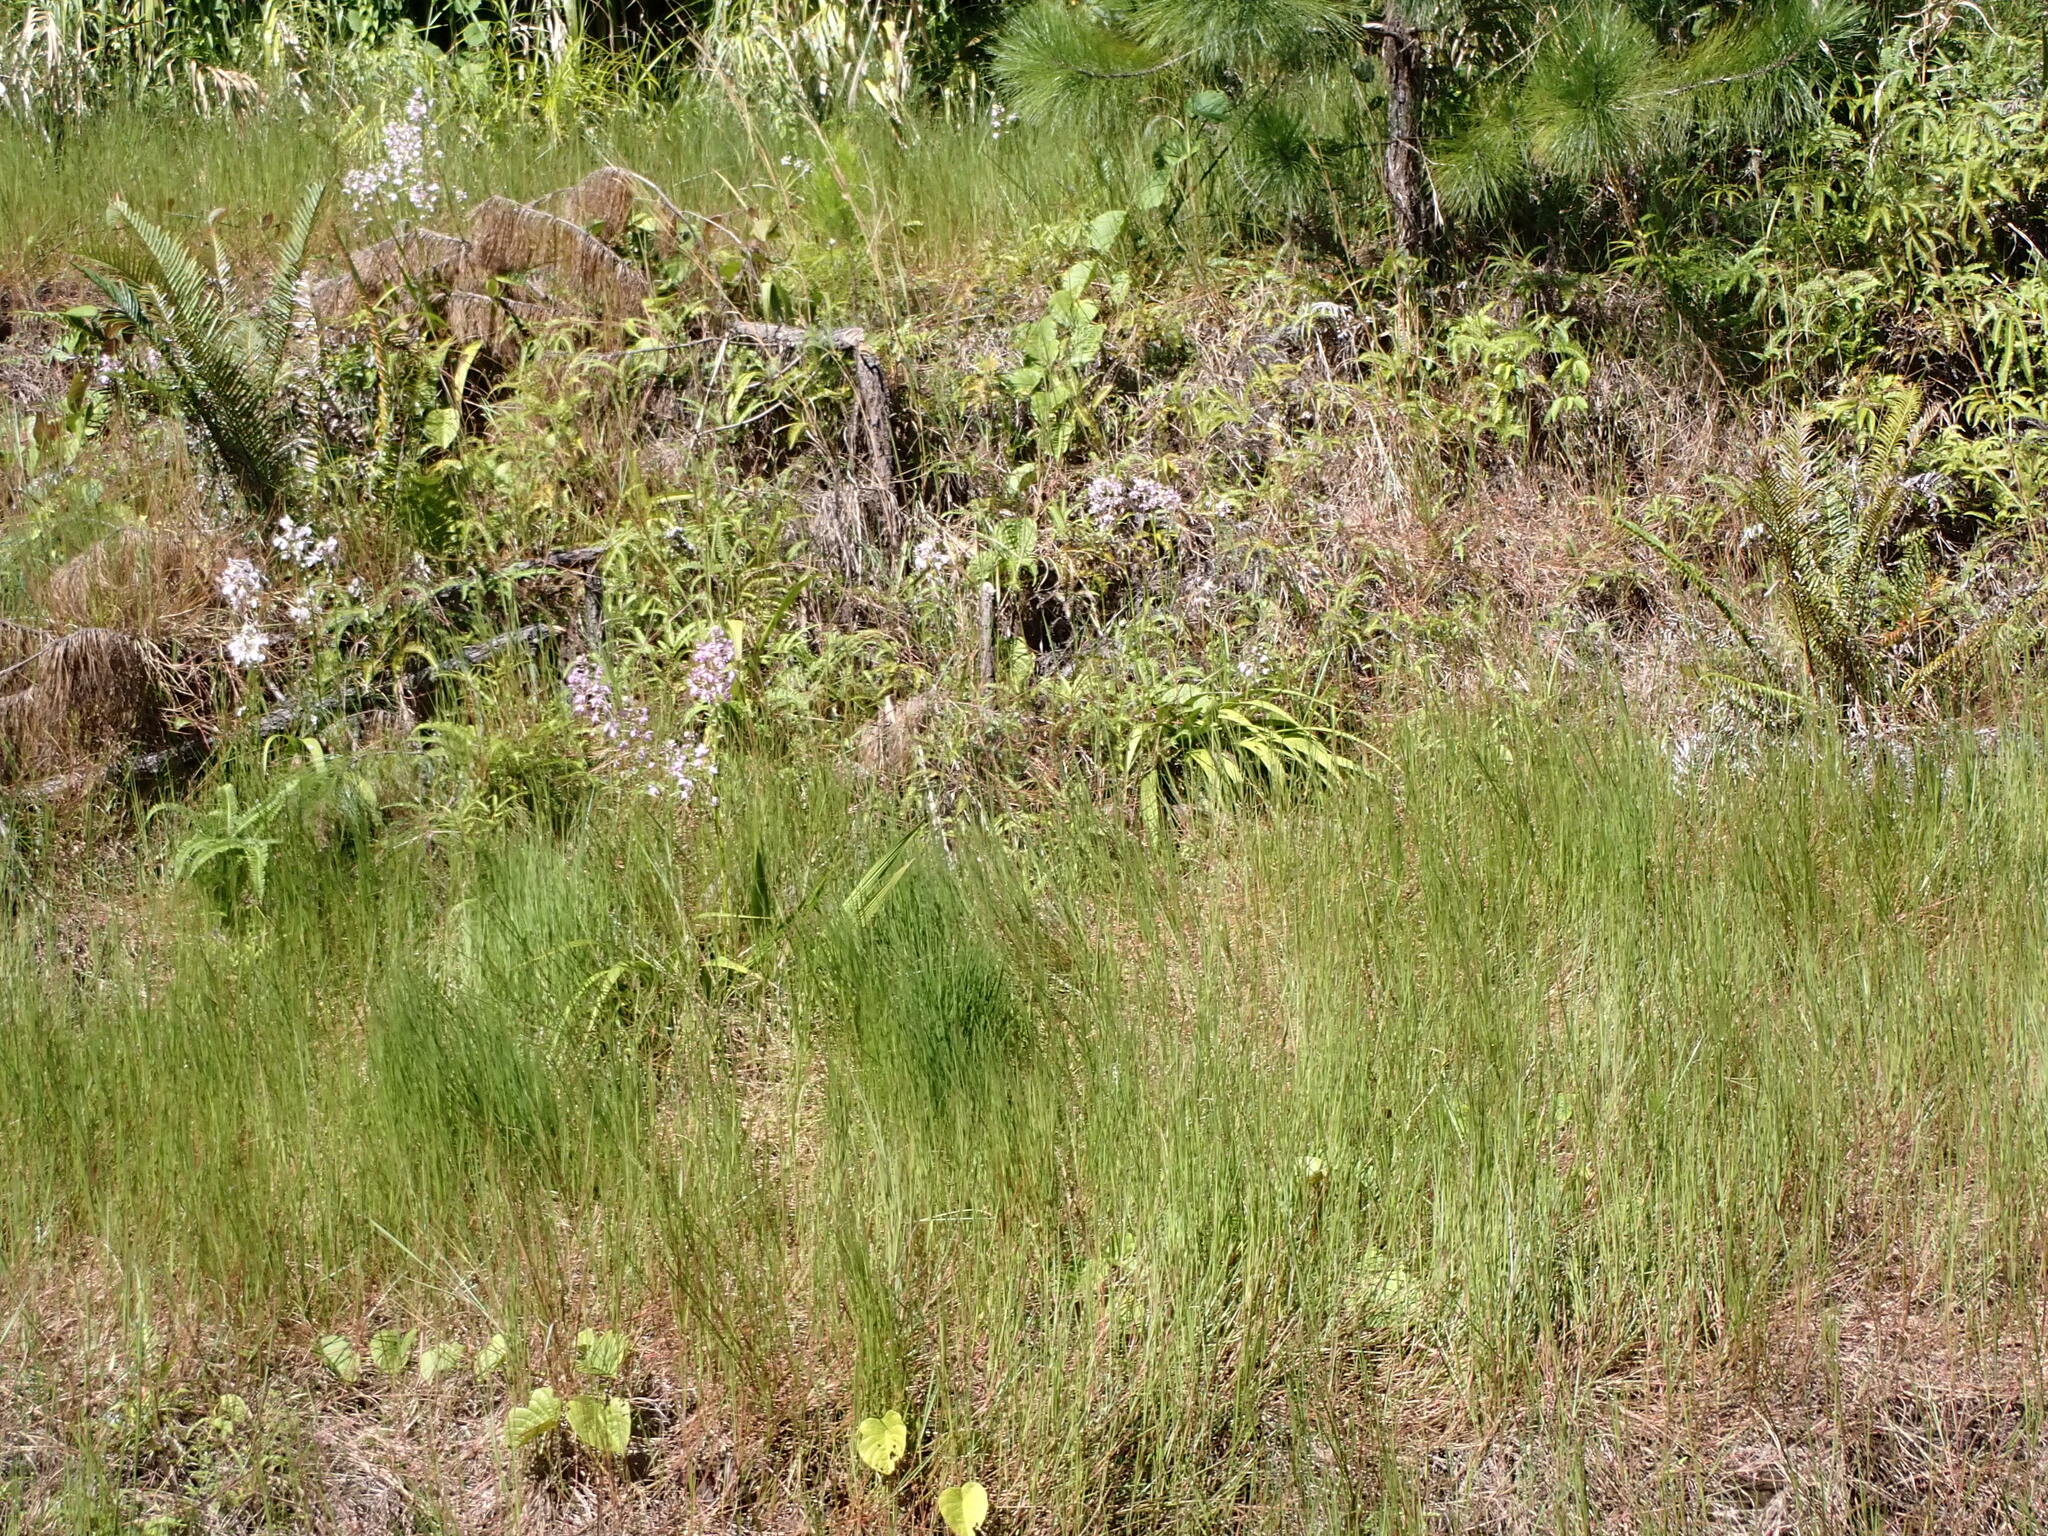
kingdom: Plantae
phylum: Tracheophyta
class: Polypodiopsida
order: Polypodiales
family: Blechnaceae
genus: Blechnopsis
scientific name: Blechnopsis orientalis
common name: Oriental blechnum
